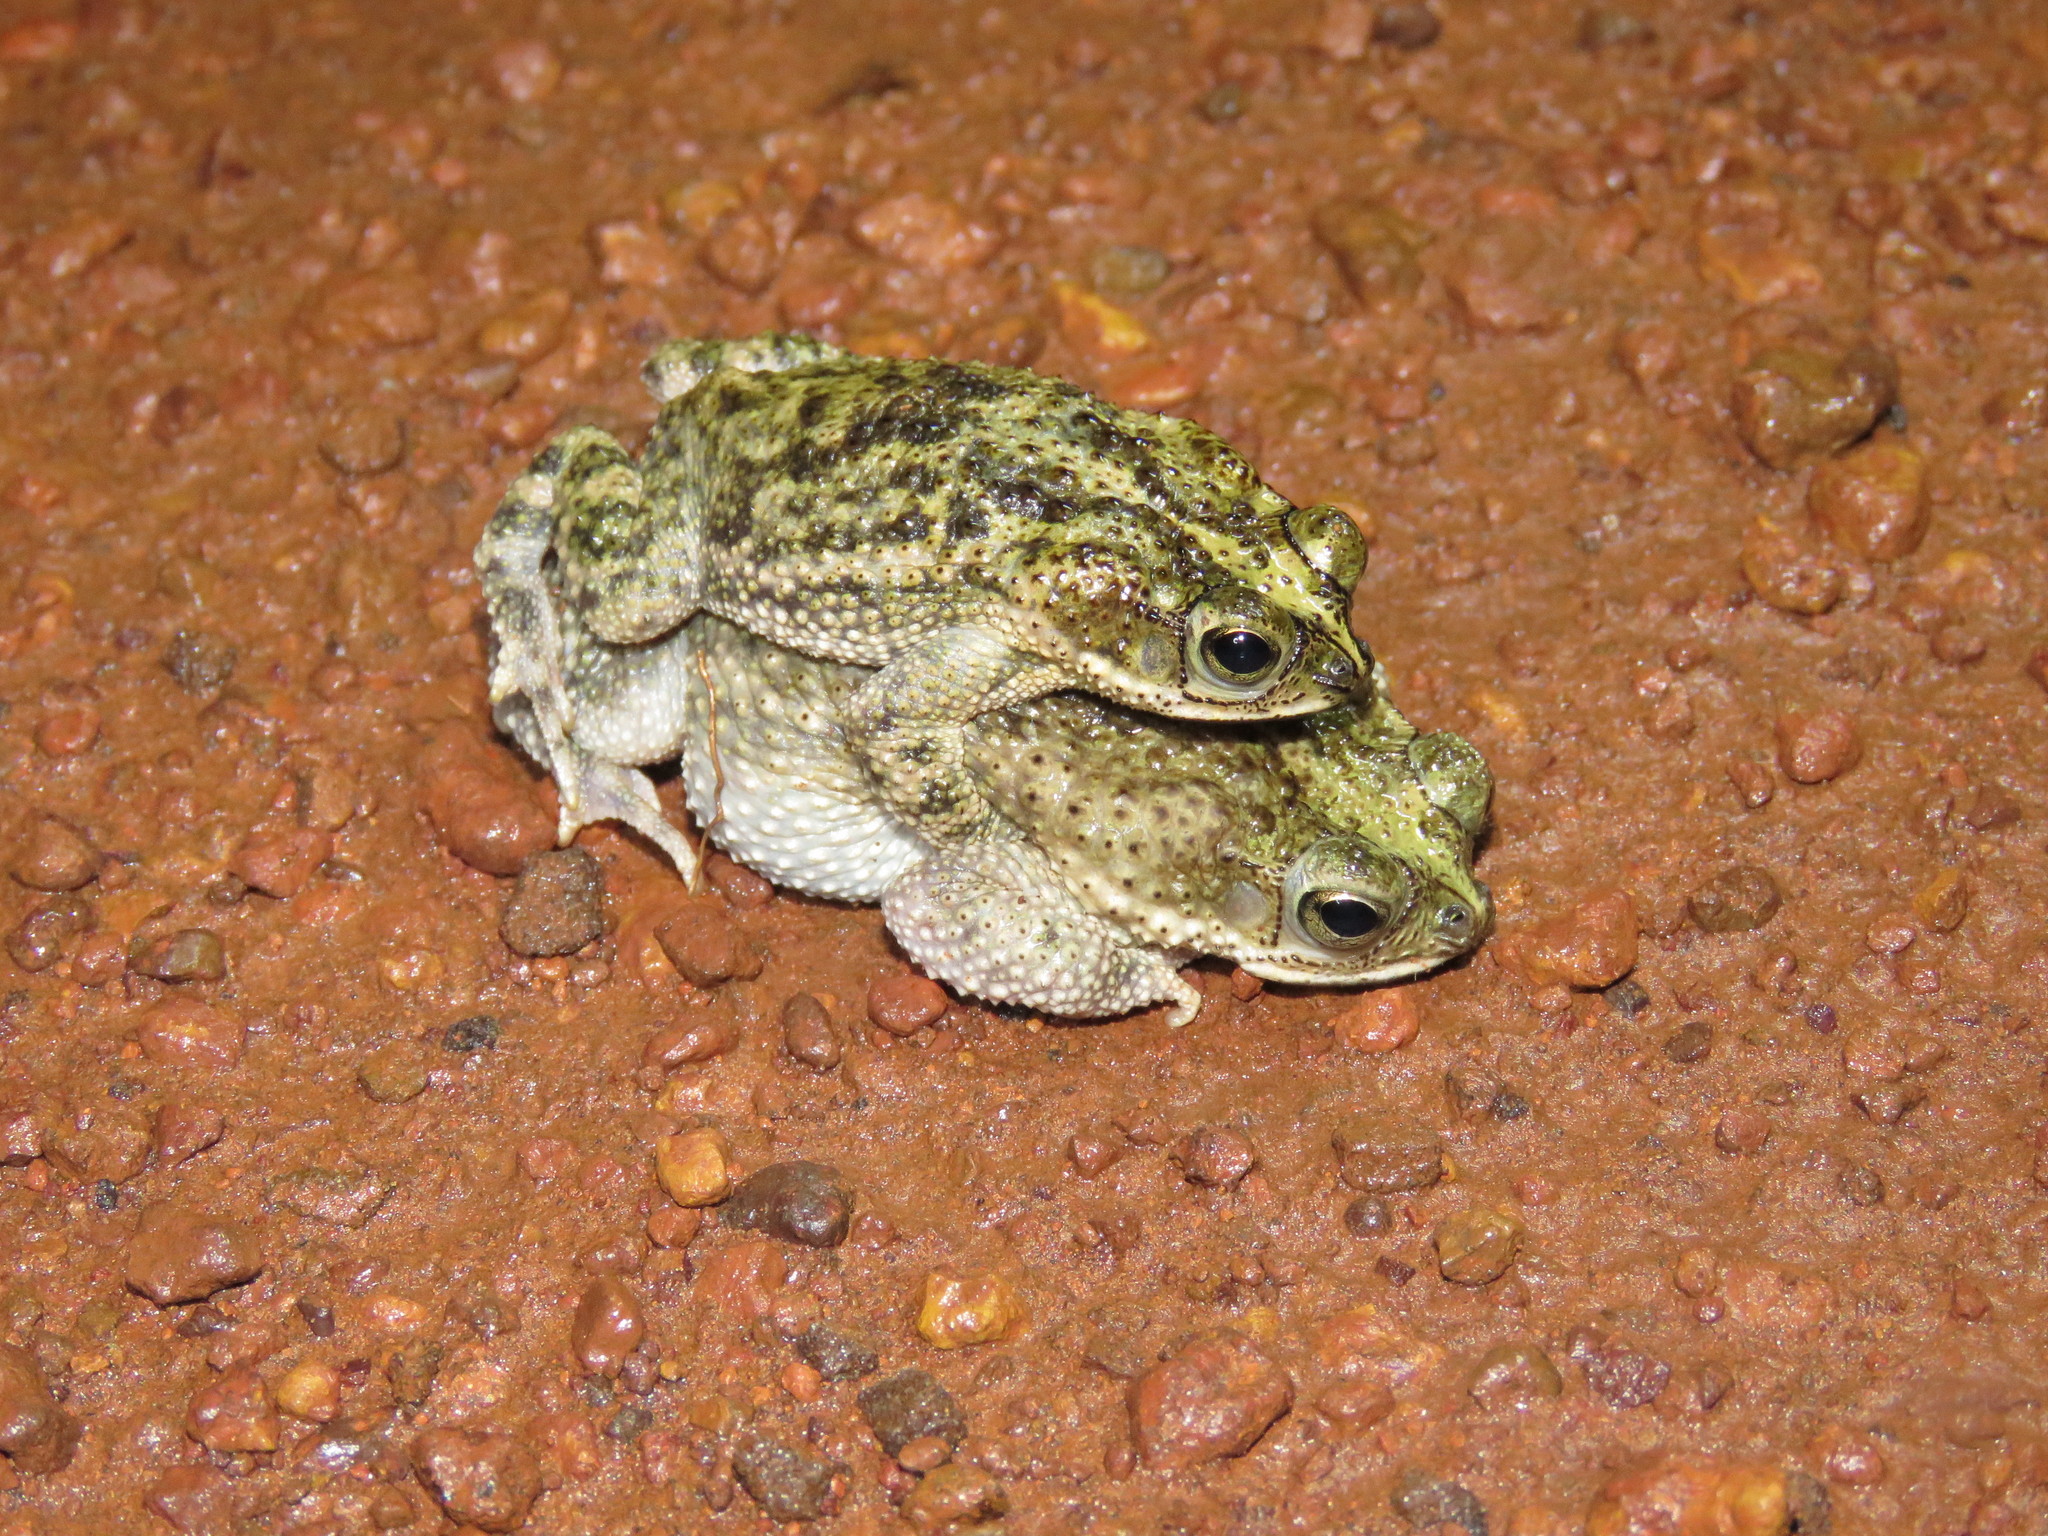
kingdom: Animalia
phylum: Chordata
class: Amphibia
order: Anura
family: Bufonidae
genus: Rhinella
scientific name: Rhinella major
